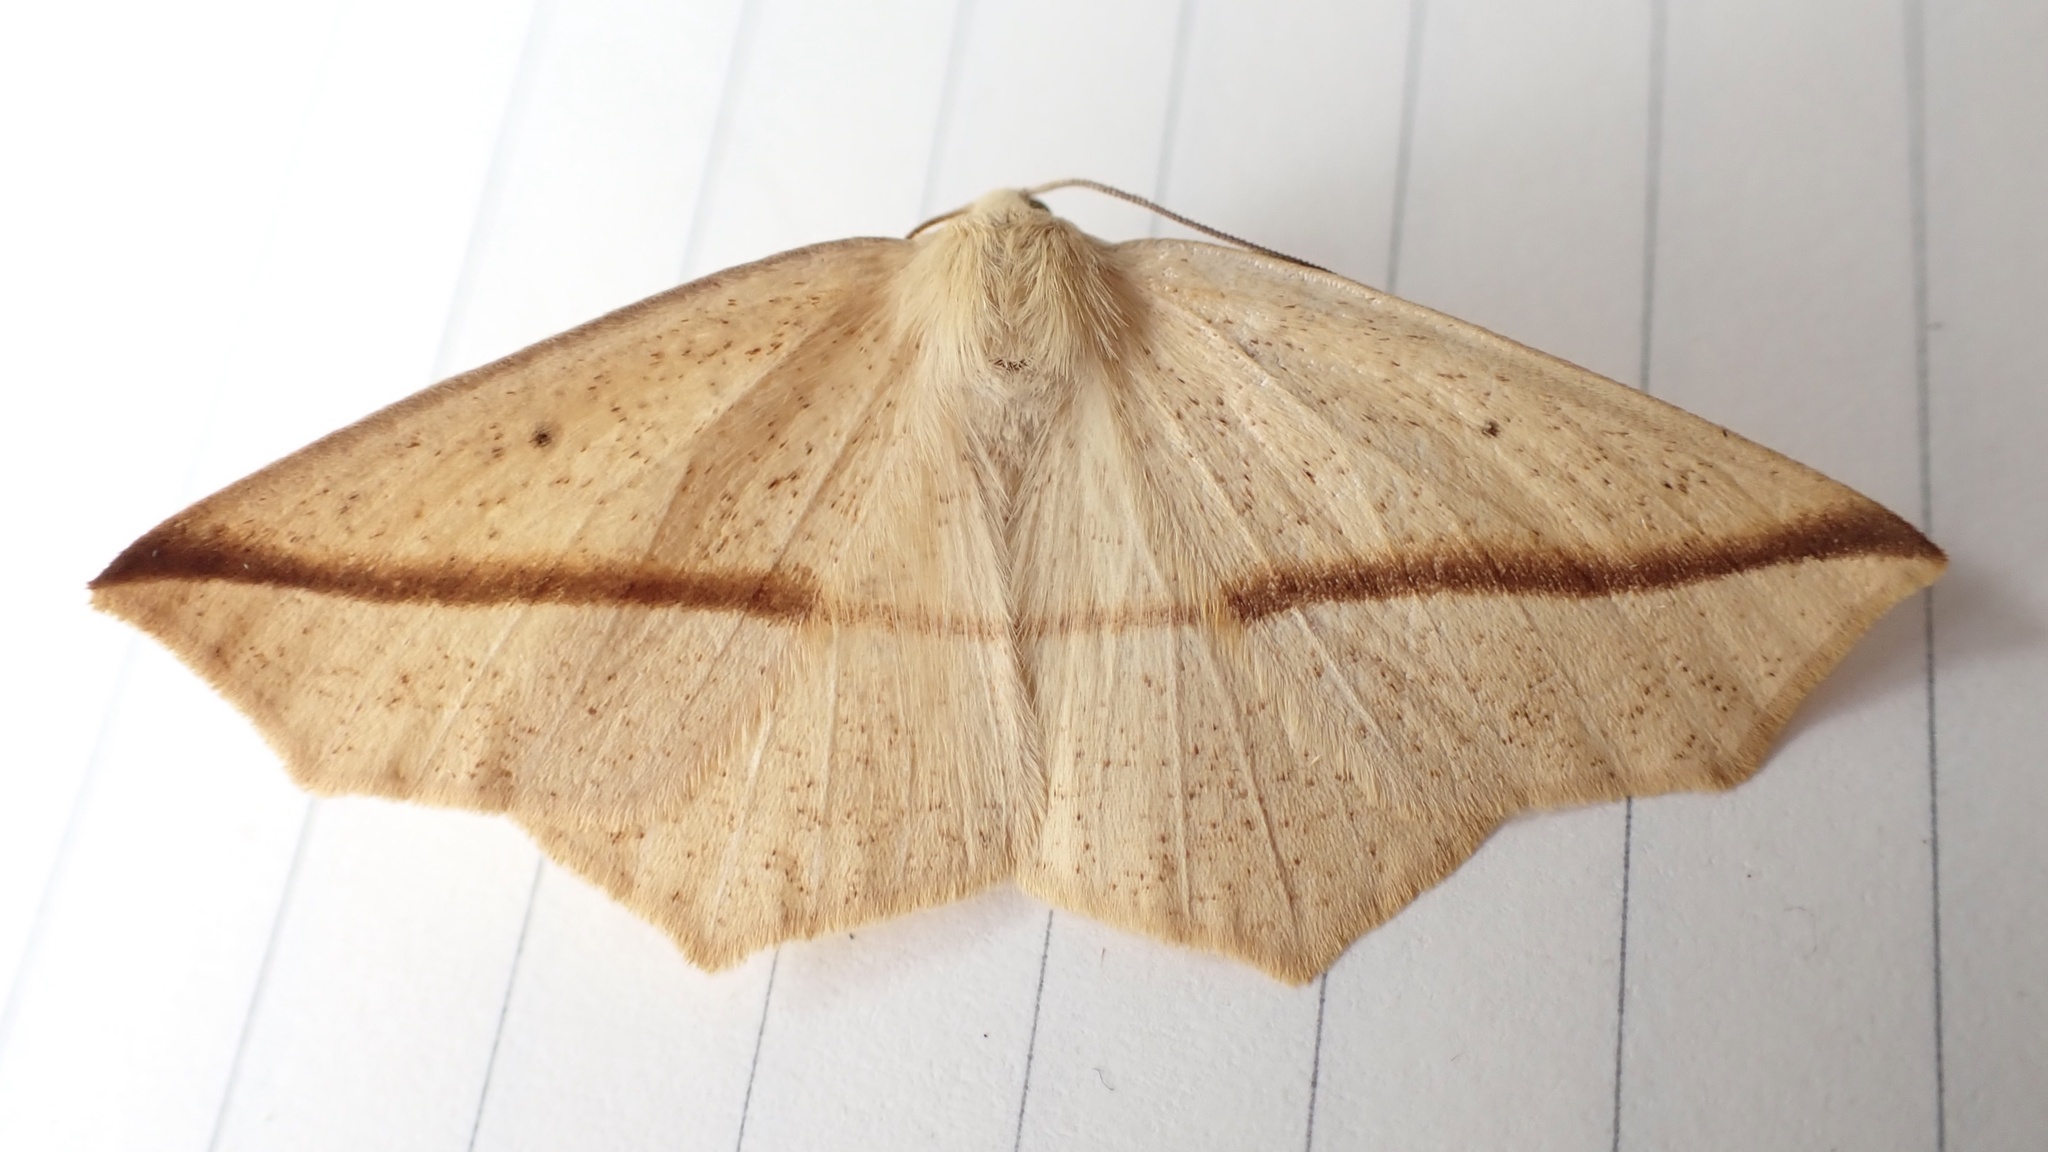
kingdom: Animalia
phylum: Arthropoda
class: Insecta
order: Lepidoptera
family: Geometridae
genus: Tetracis
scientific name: Tetracis crocallata
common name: Yellow slant-line
